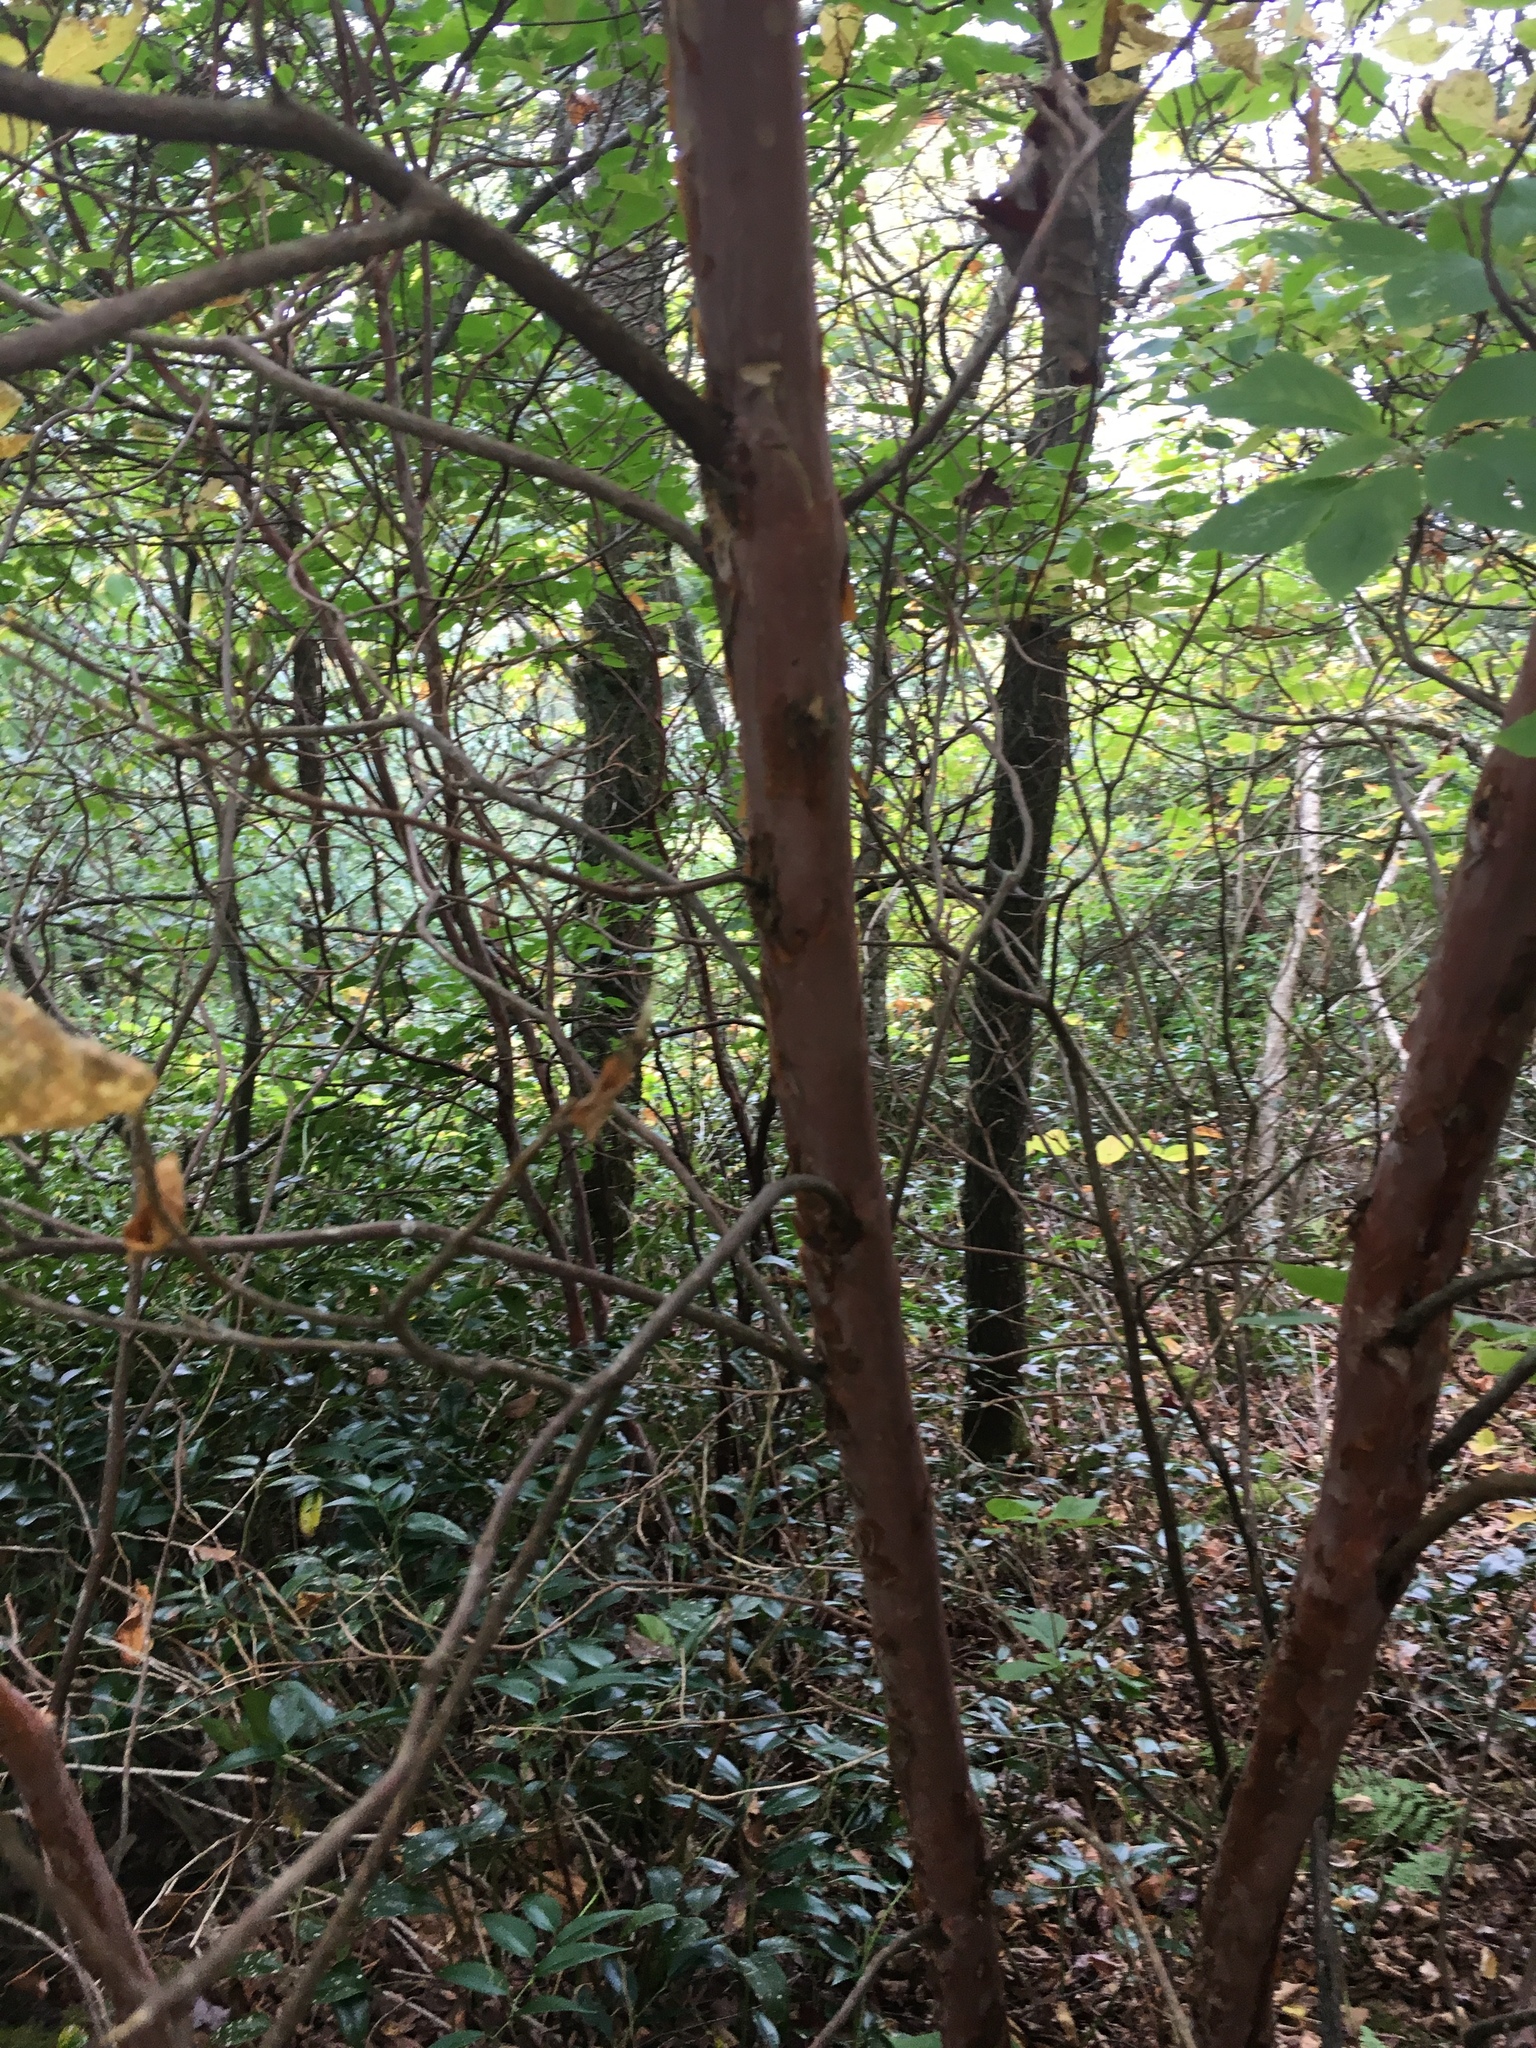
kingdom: Plantae
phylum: Tracheophyta
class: Magnoliopsida
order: Ericales
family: Clethraceae
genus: Clethra
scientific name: Clethra acuminata
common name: Mountain sweet pepperbush
